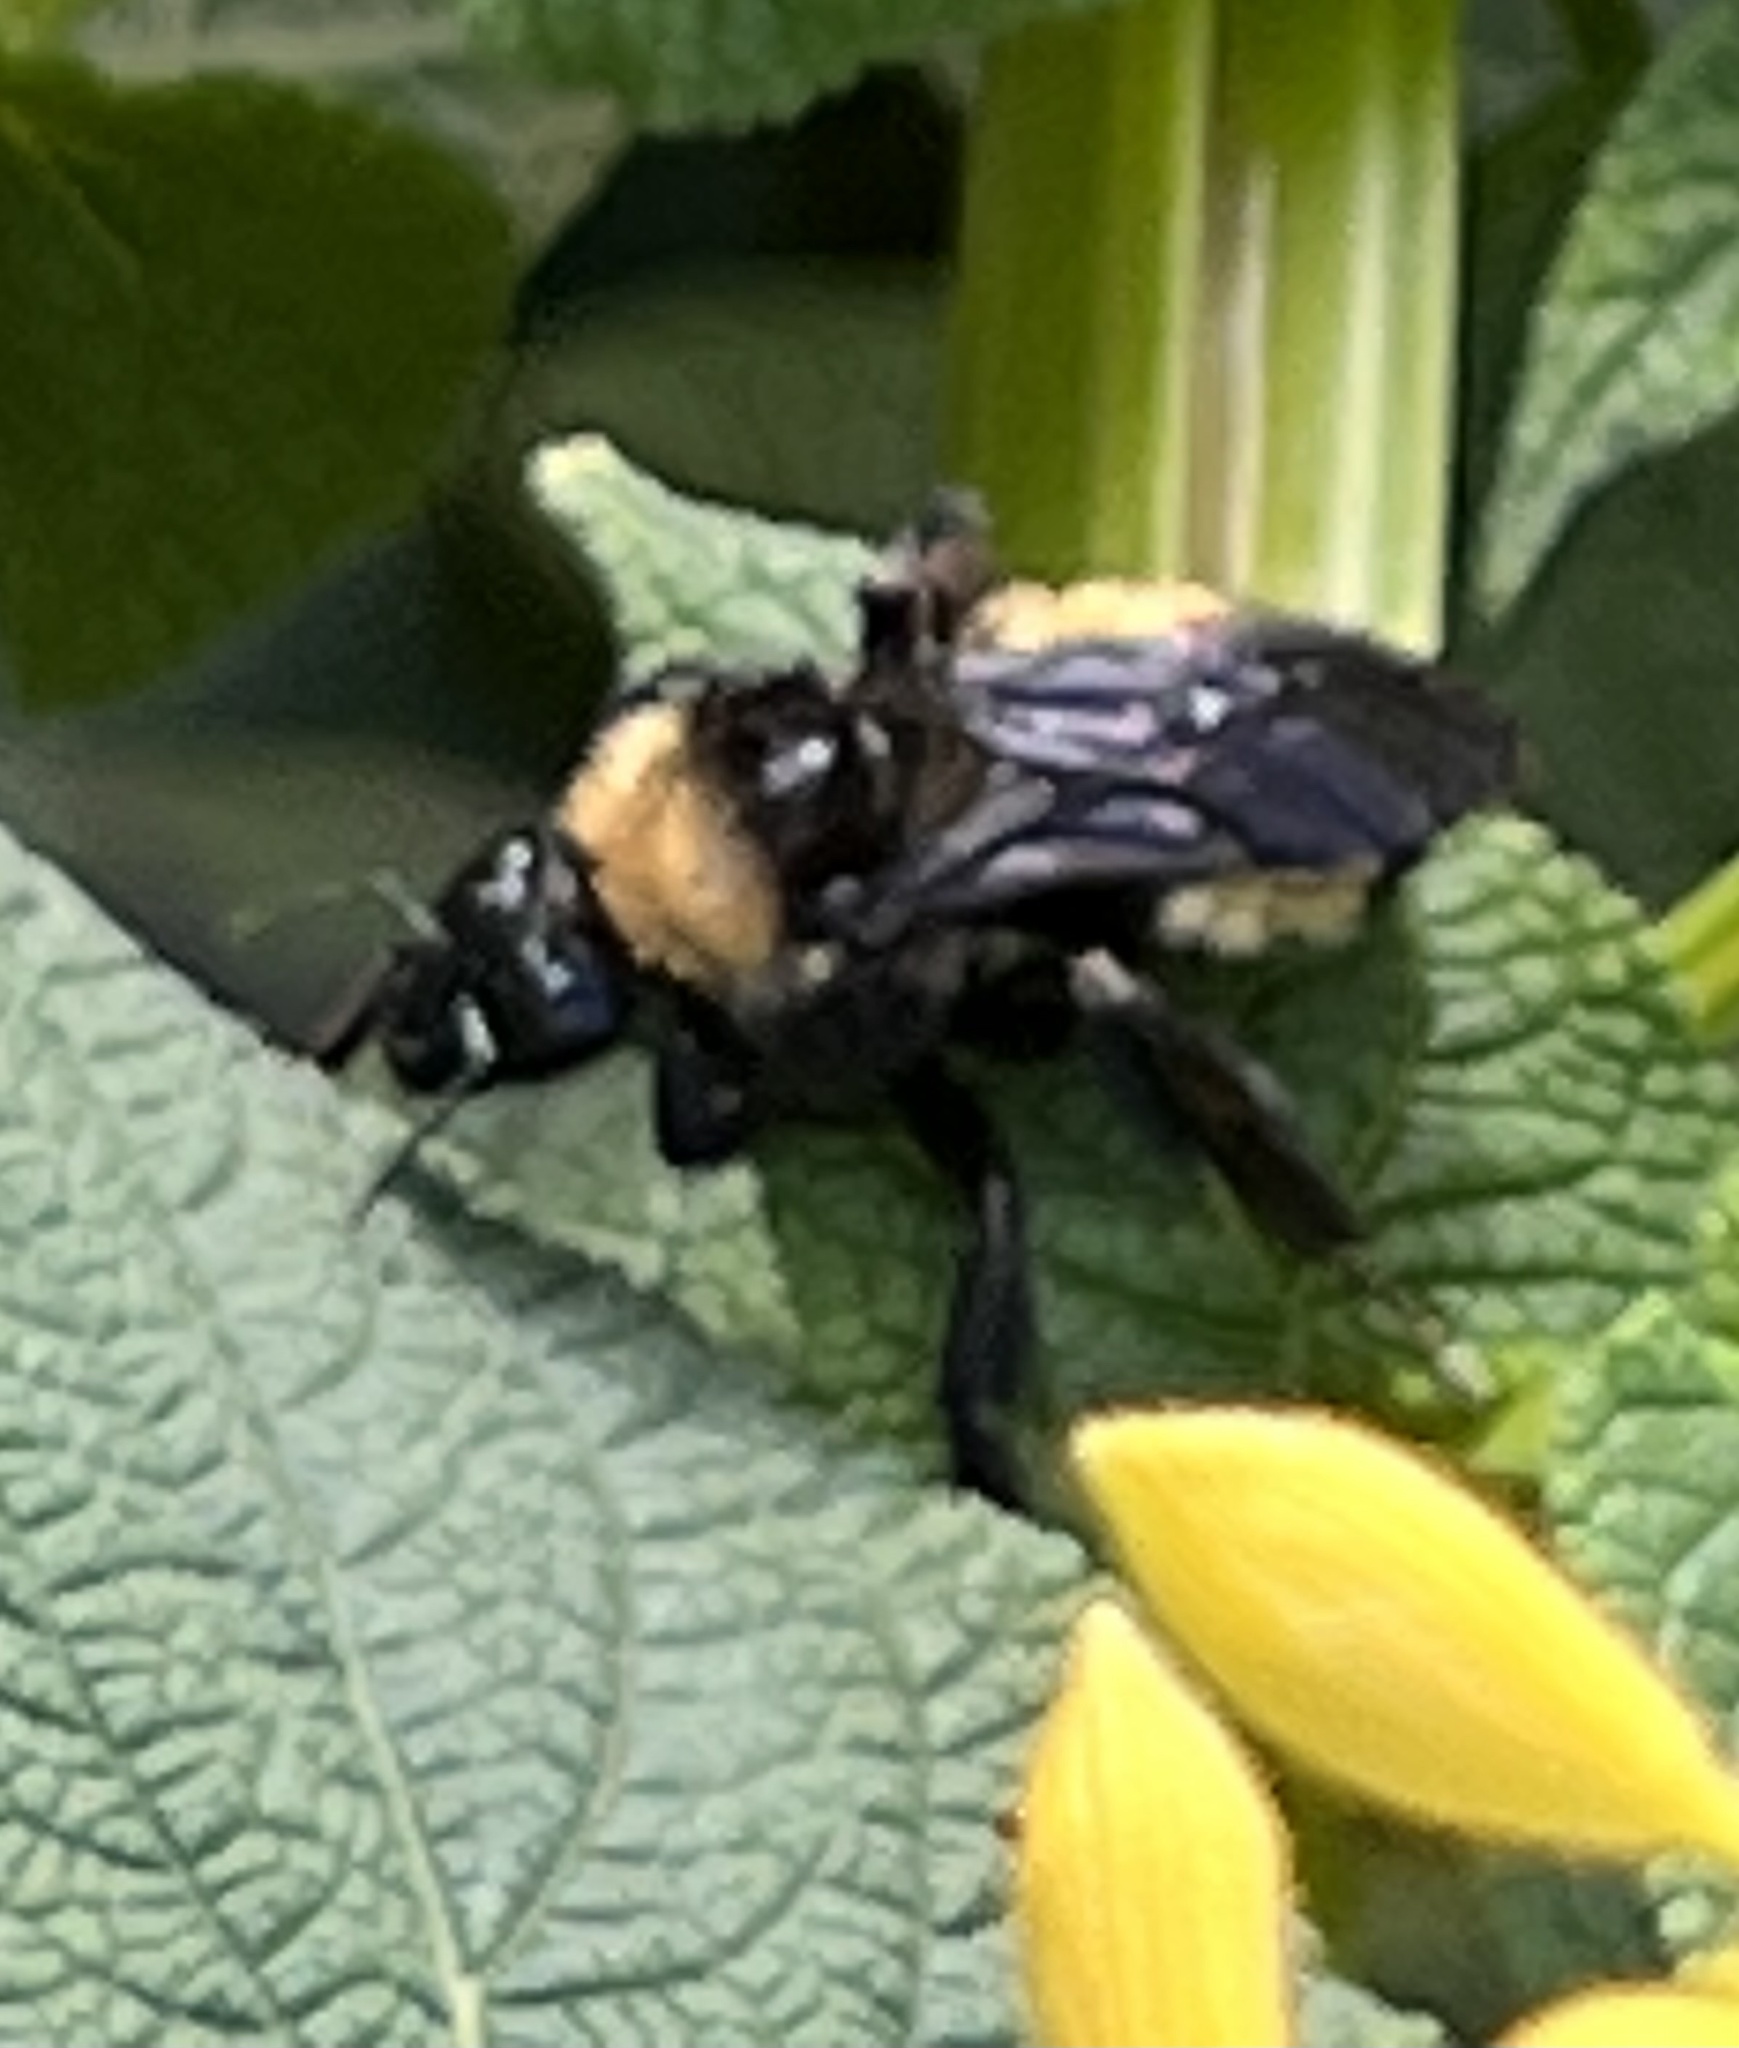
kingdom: Animalia
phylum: Arthropoda
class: Insecta
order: Hymenoptera
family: Apidae
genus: Bombus
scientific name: Bombus pensylvanicus
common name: Bumble bee
